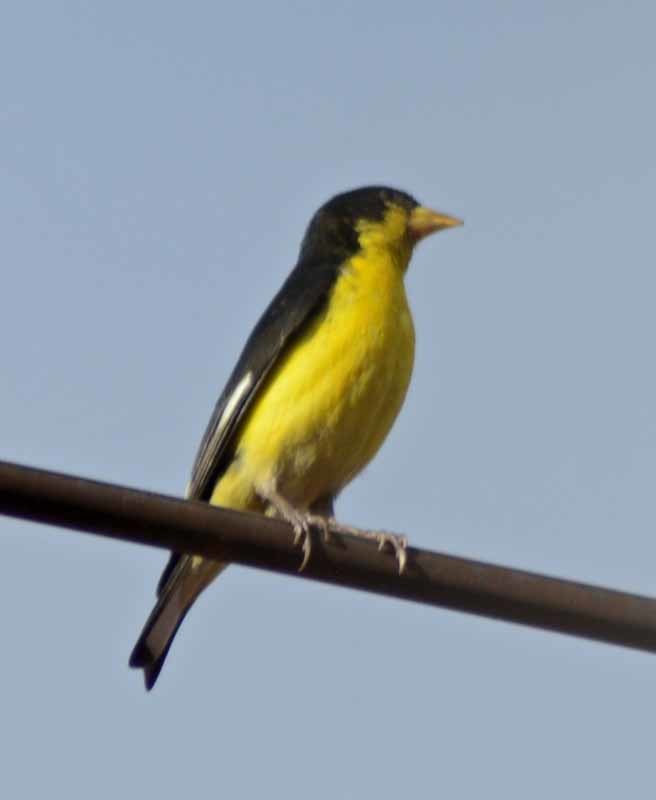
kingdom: Animalia
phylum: Chordata
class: Aves
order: Passeriformes
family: Fringillidae
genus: Spinus
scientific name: Spinus psaltria
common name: Lesser goldfinch
